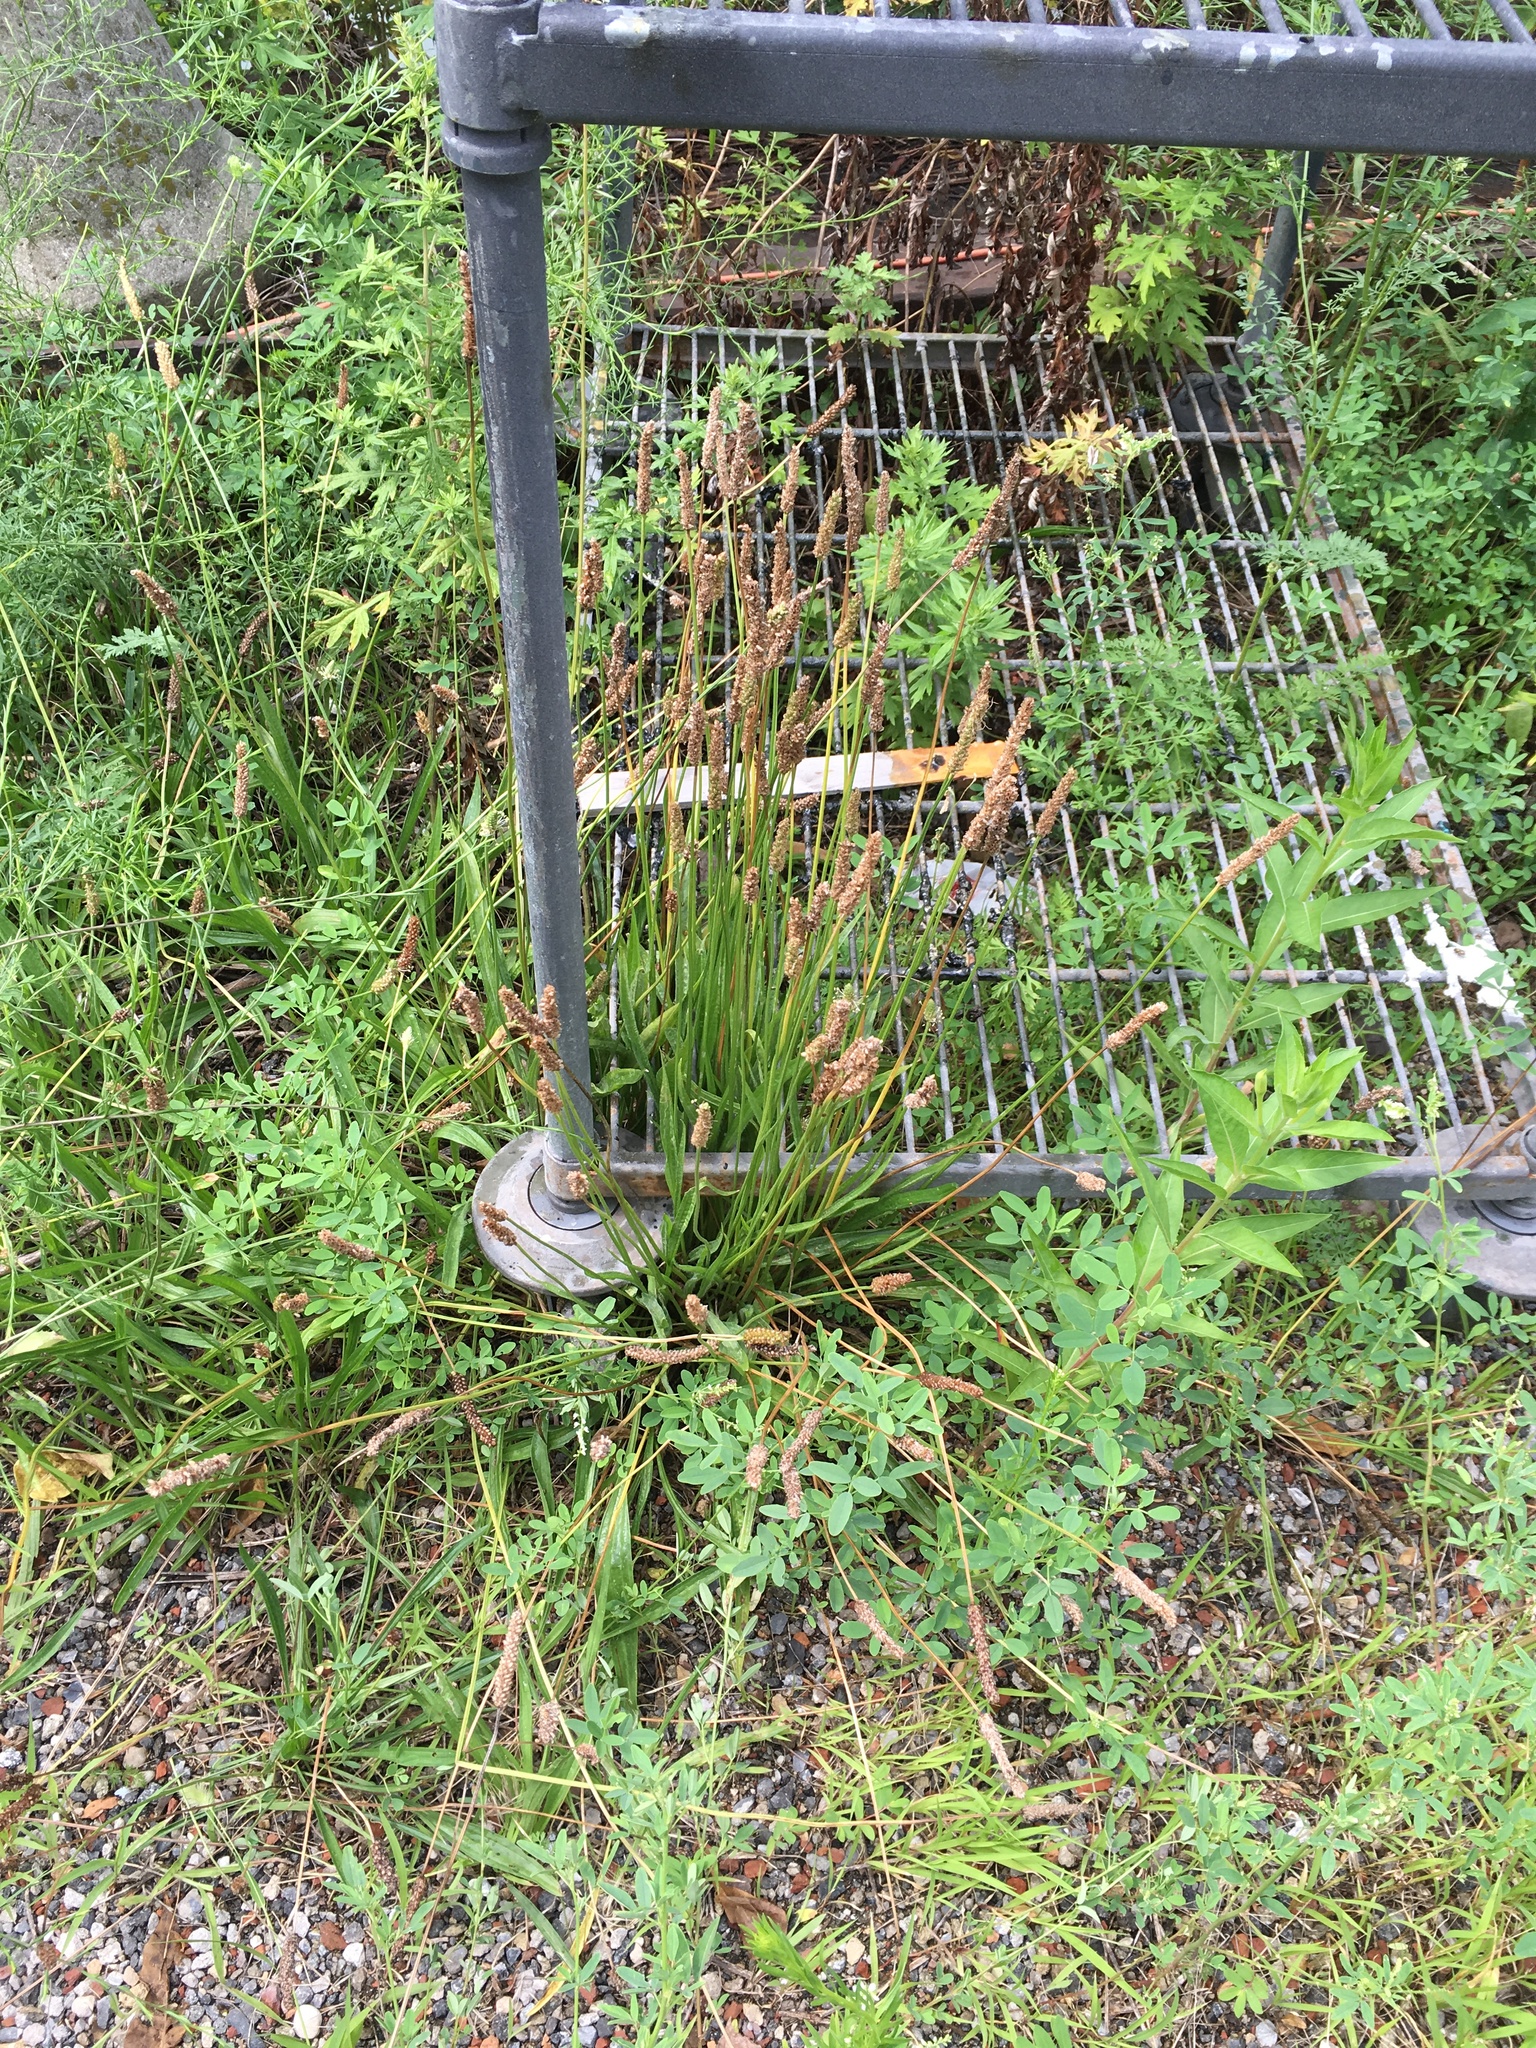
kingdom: Plantae
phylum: Tracheophyta
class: Magnoliopsida
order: Lamiales
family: Plantaginaceae
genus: Plantago
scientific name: Plantago lanceolata
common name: Ribwort plantain
